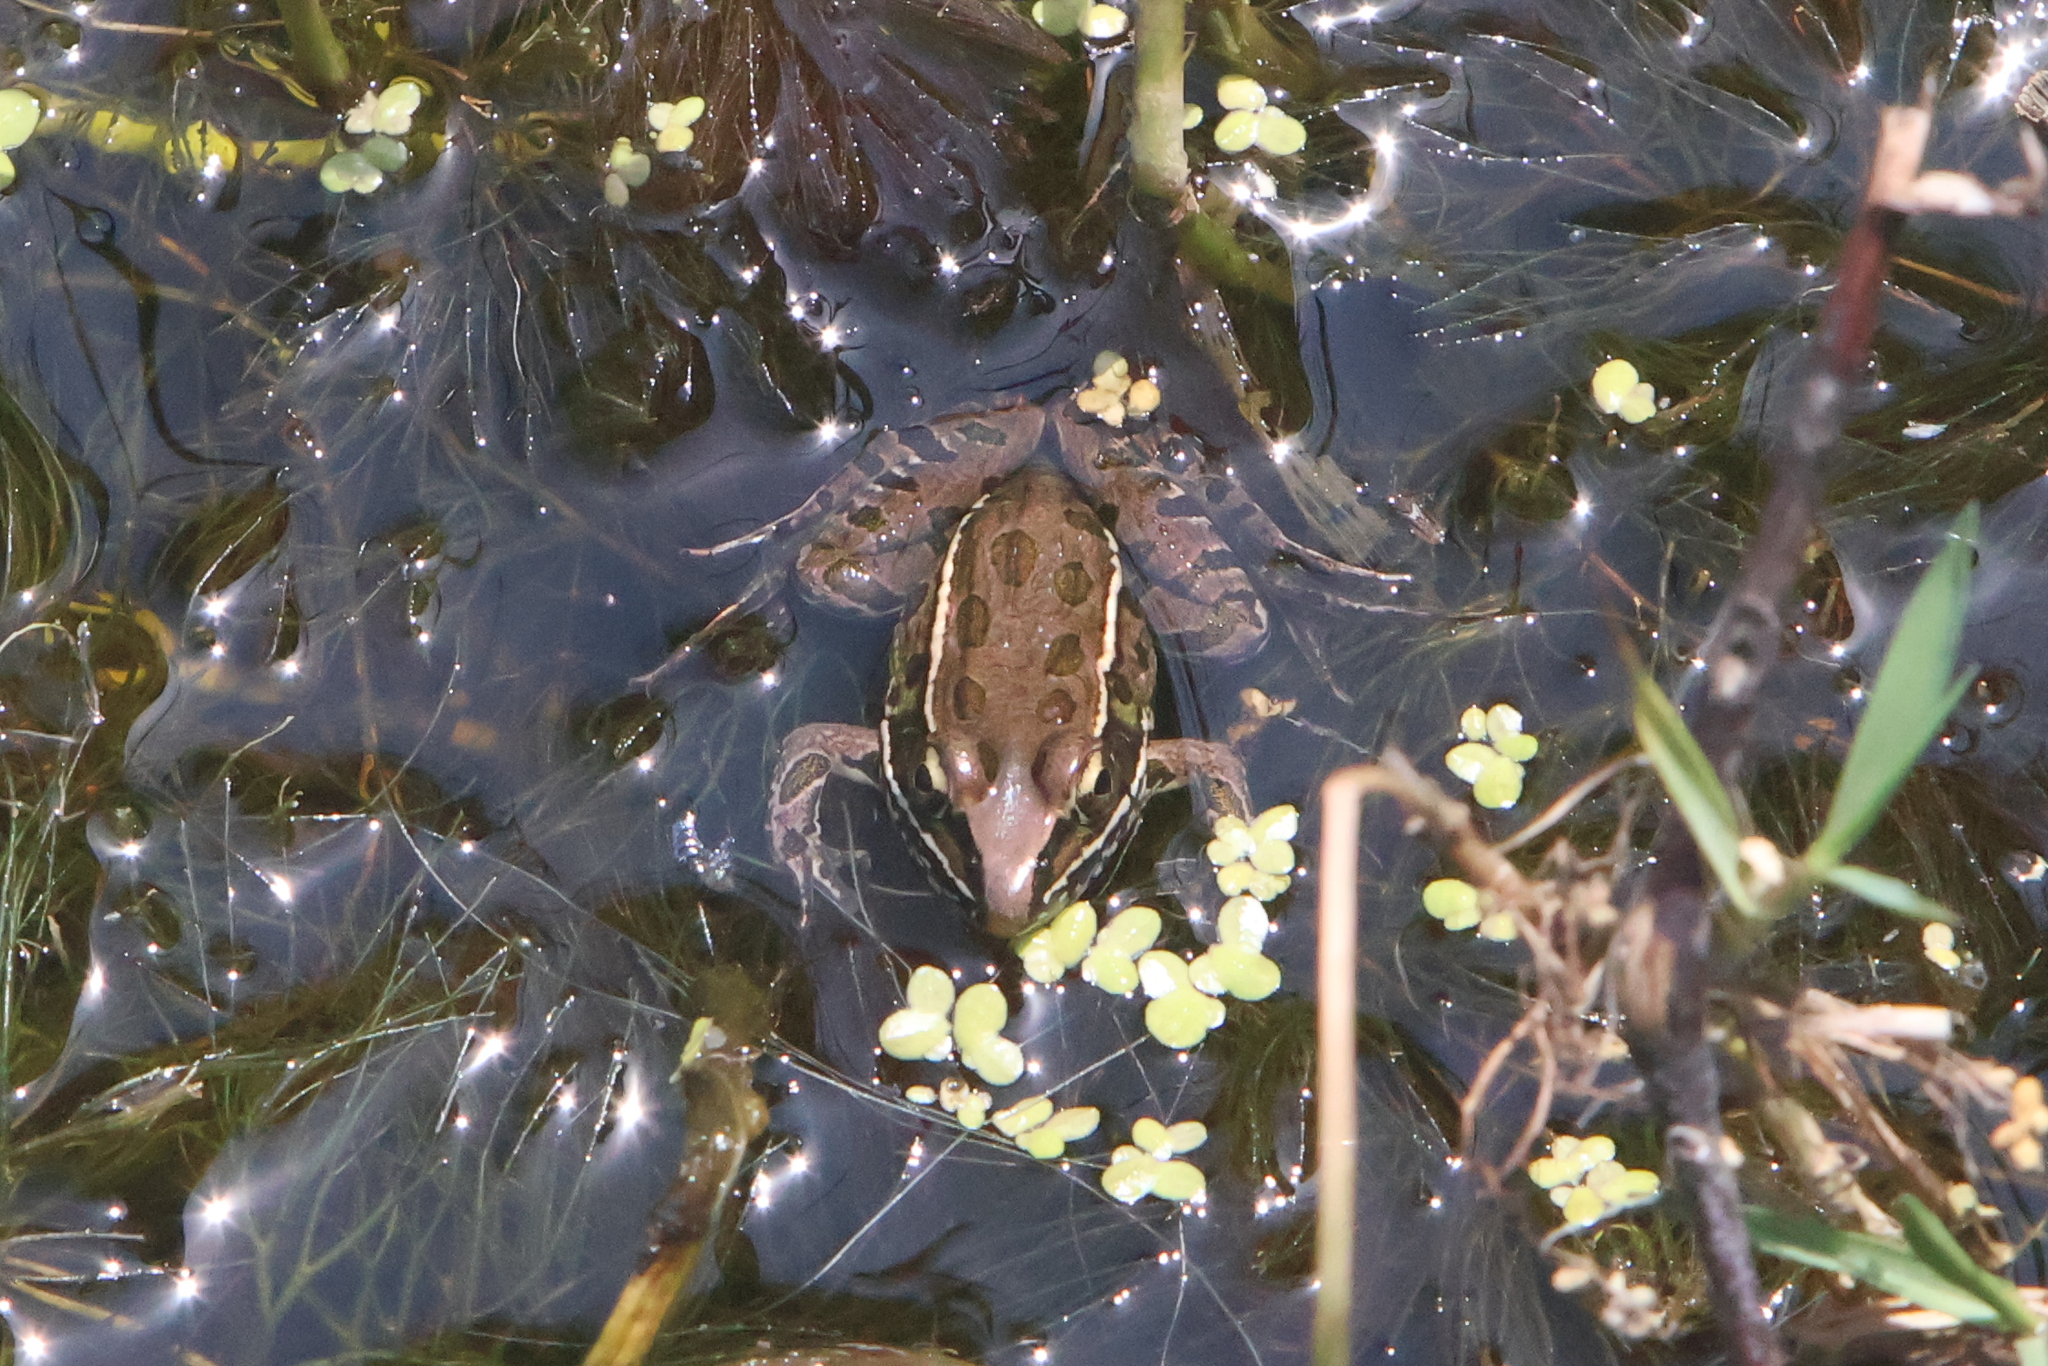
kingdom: Animalia
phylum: Chordata
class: Amphibia
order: Anura
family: Ranidae
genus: Lithobates
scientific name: Lithobates sphenocephalus
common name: Southern leopard frog
